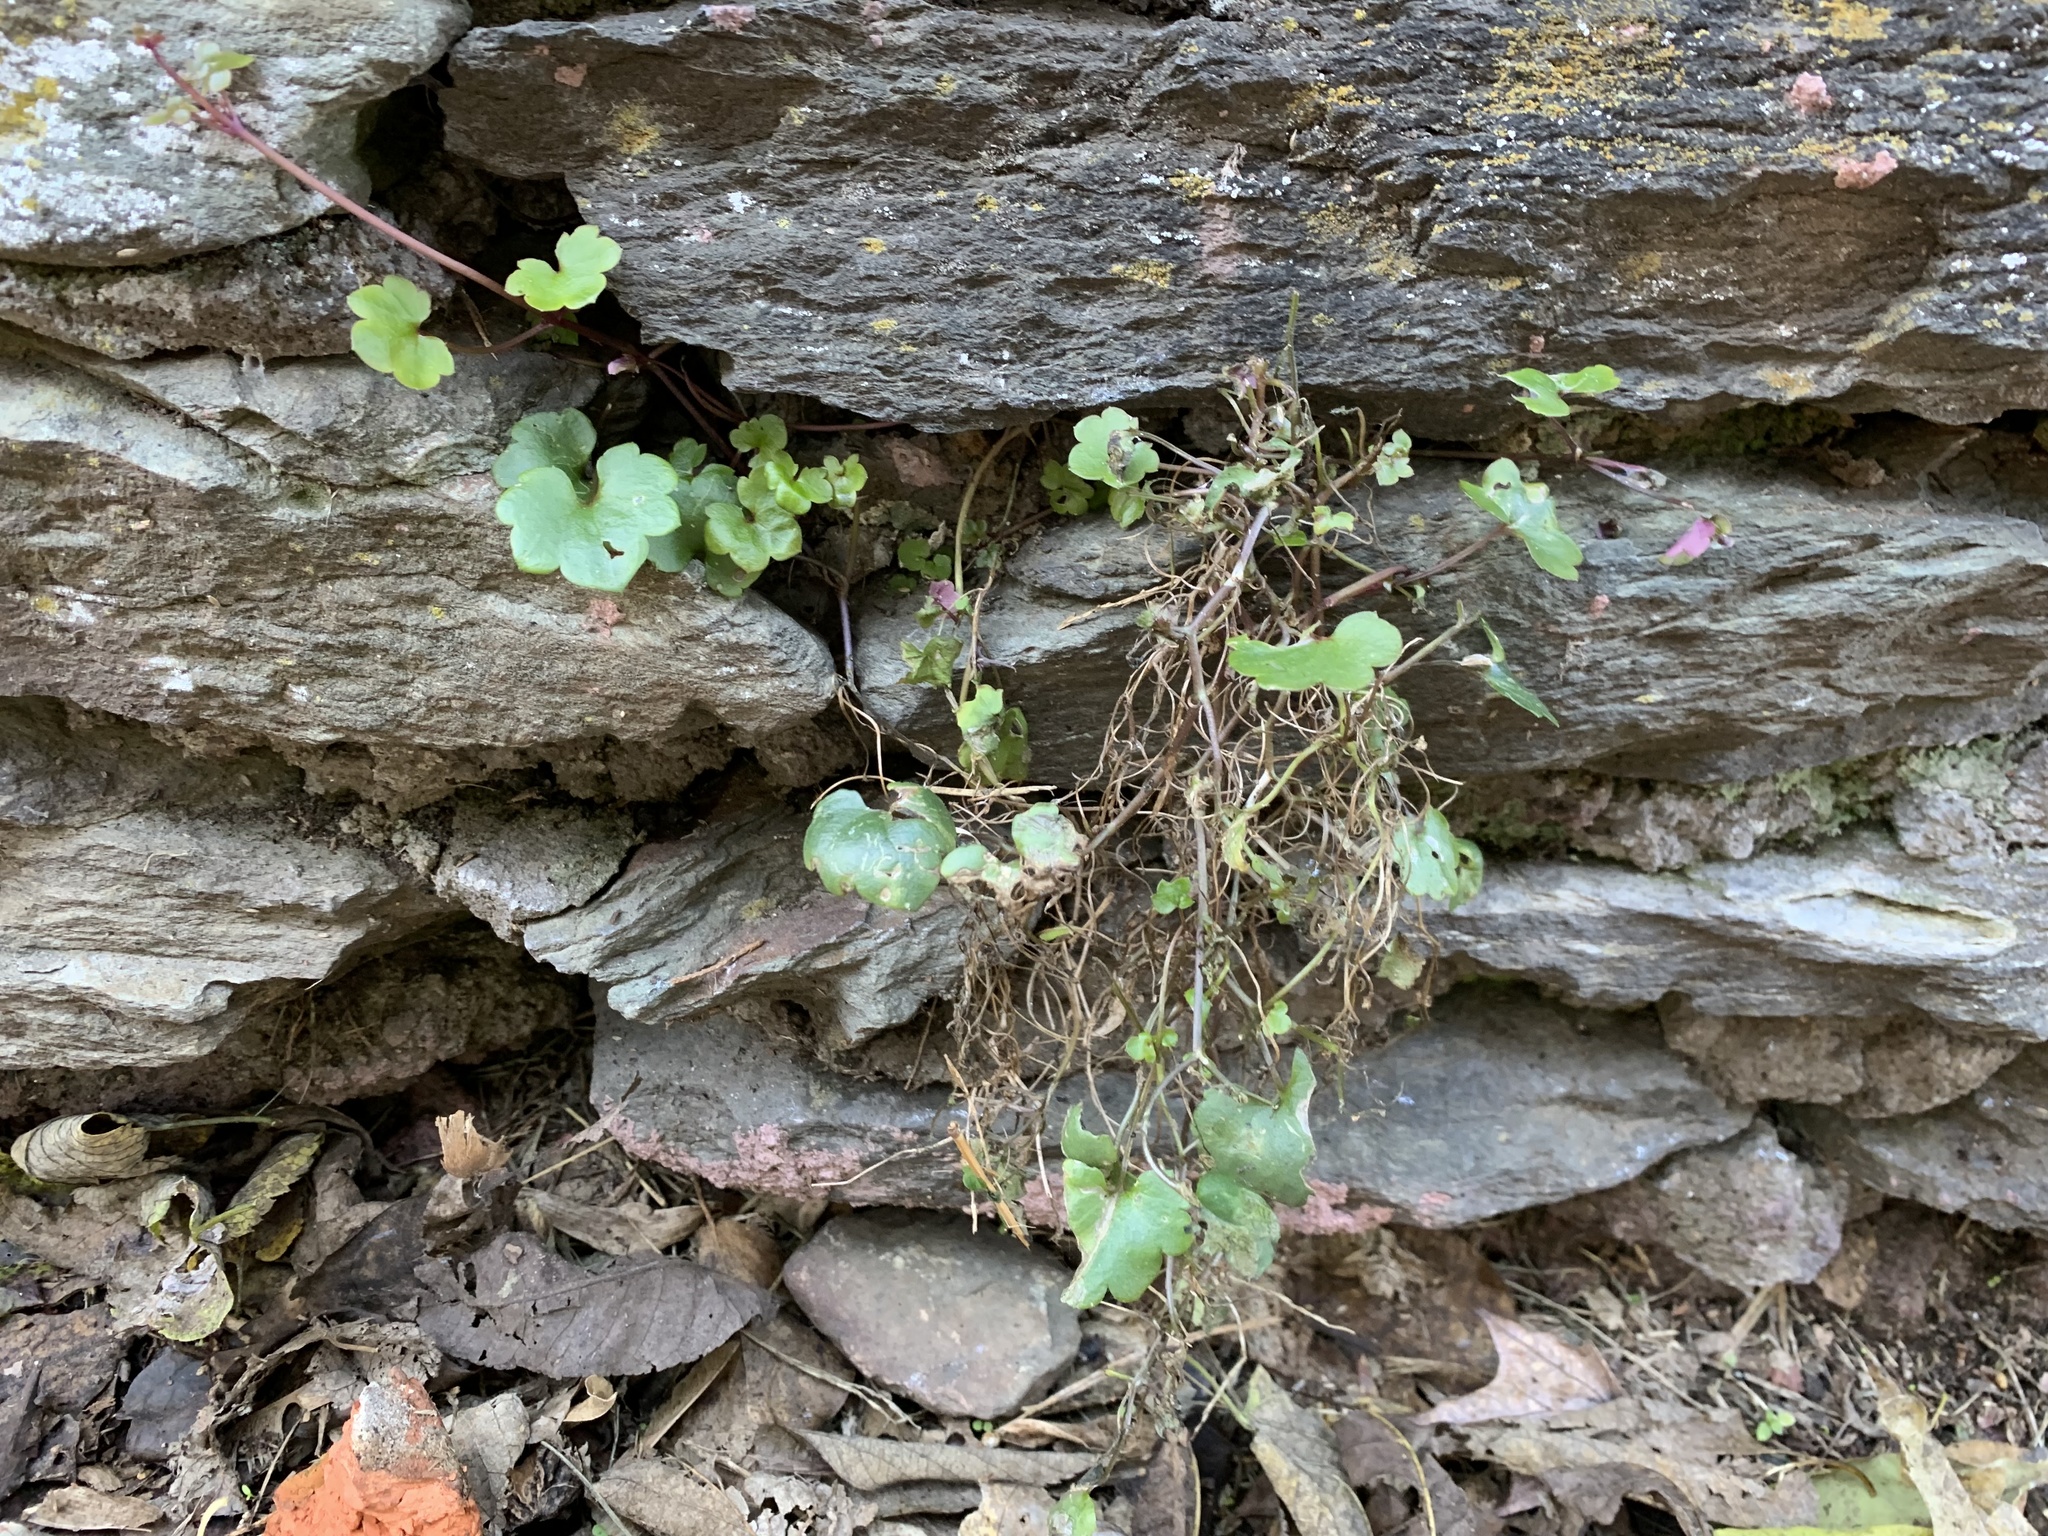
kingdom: Plantae
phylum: Tracheophyta
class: Magnoliopsida
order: Lamiales
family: Plantaginaceae
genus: Cymbalaria
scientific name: Cymbalaria muralis
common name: Ivy-leaved toadflax
